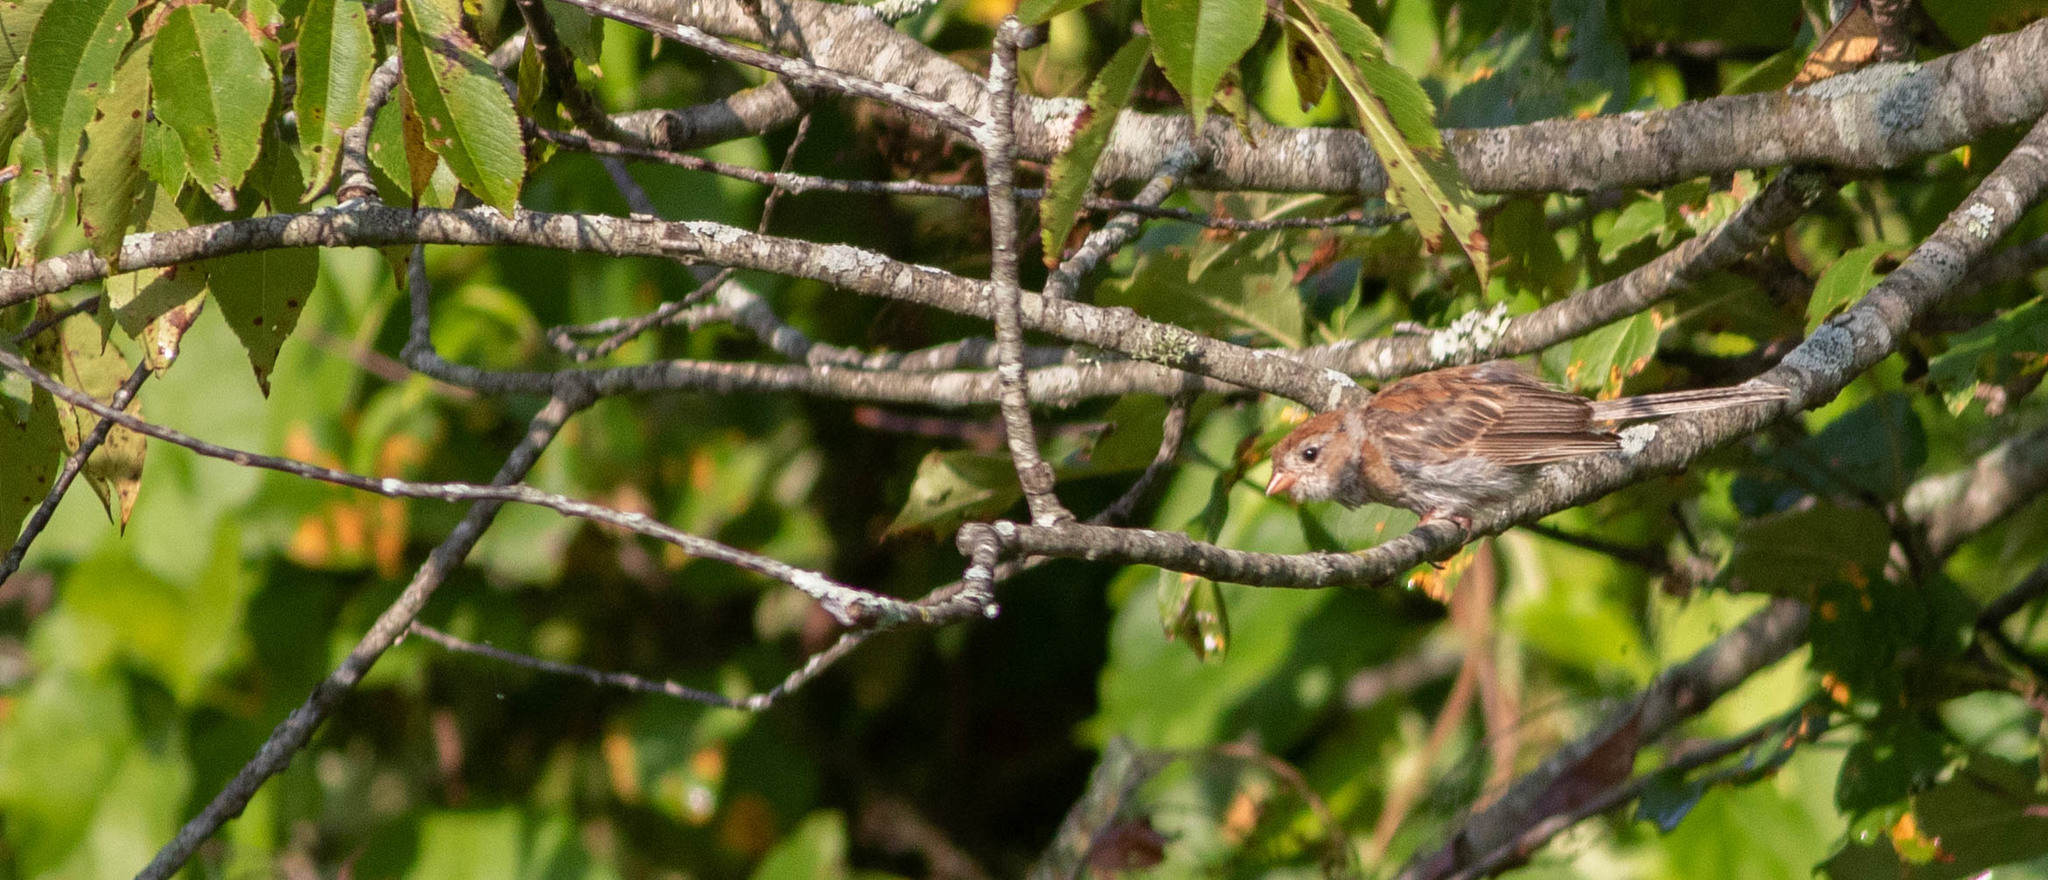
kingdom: Animalia
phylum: Chordata
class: Aves
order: Passeriformes
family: Passerellidae
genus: Spizella
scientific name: Spizella pusilla
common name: Field sparrow
